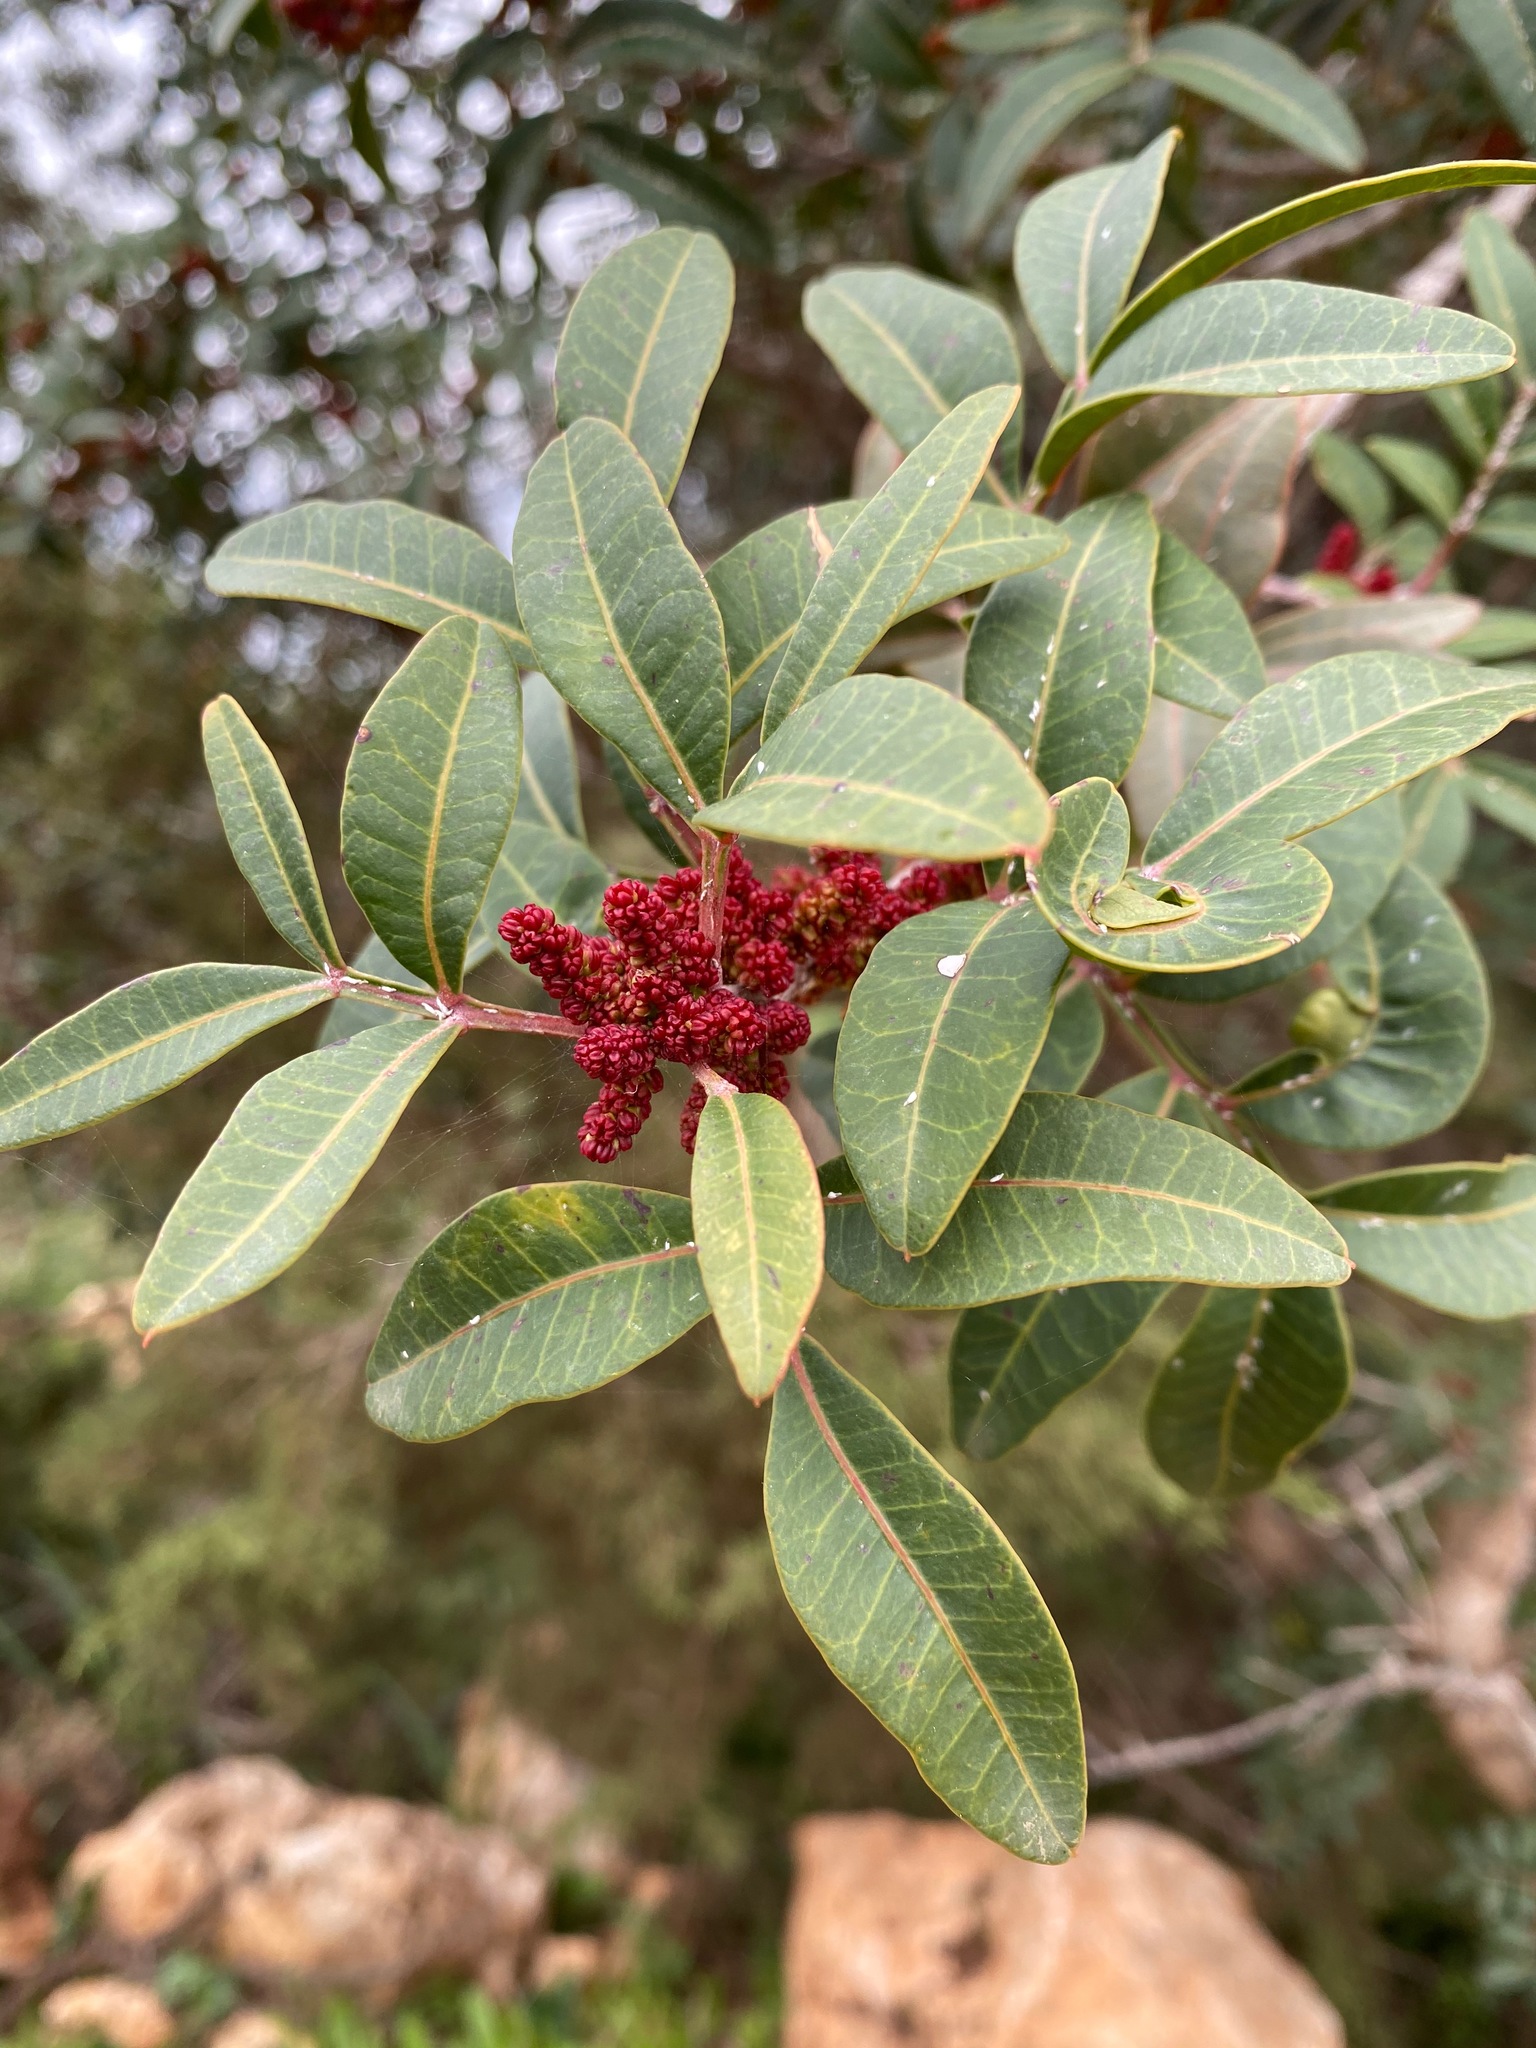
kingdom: Plantae
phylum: Tracheophyta
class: Magnoliopsida
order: Sapindales
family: Anacardiaceae
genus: Pistacia
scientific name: Pistacia lentiscus
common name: Lentisk
